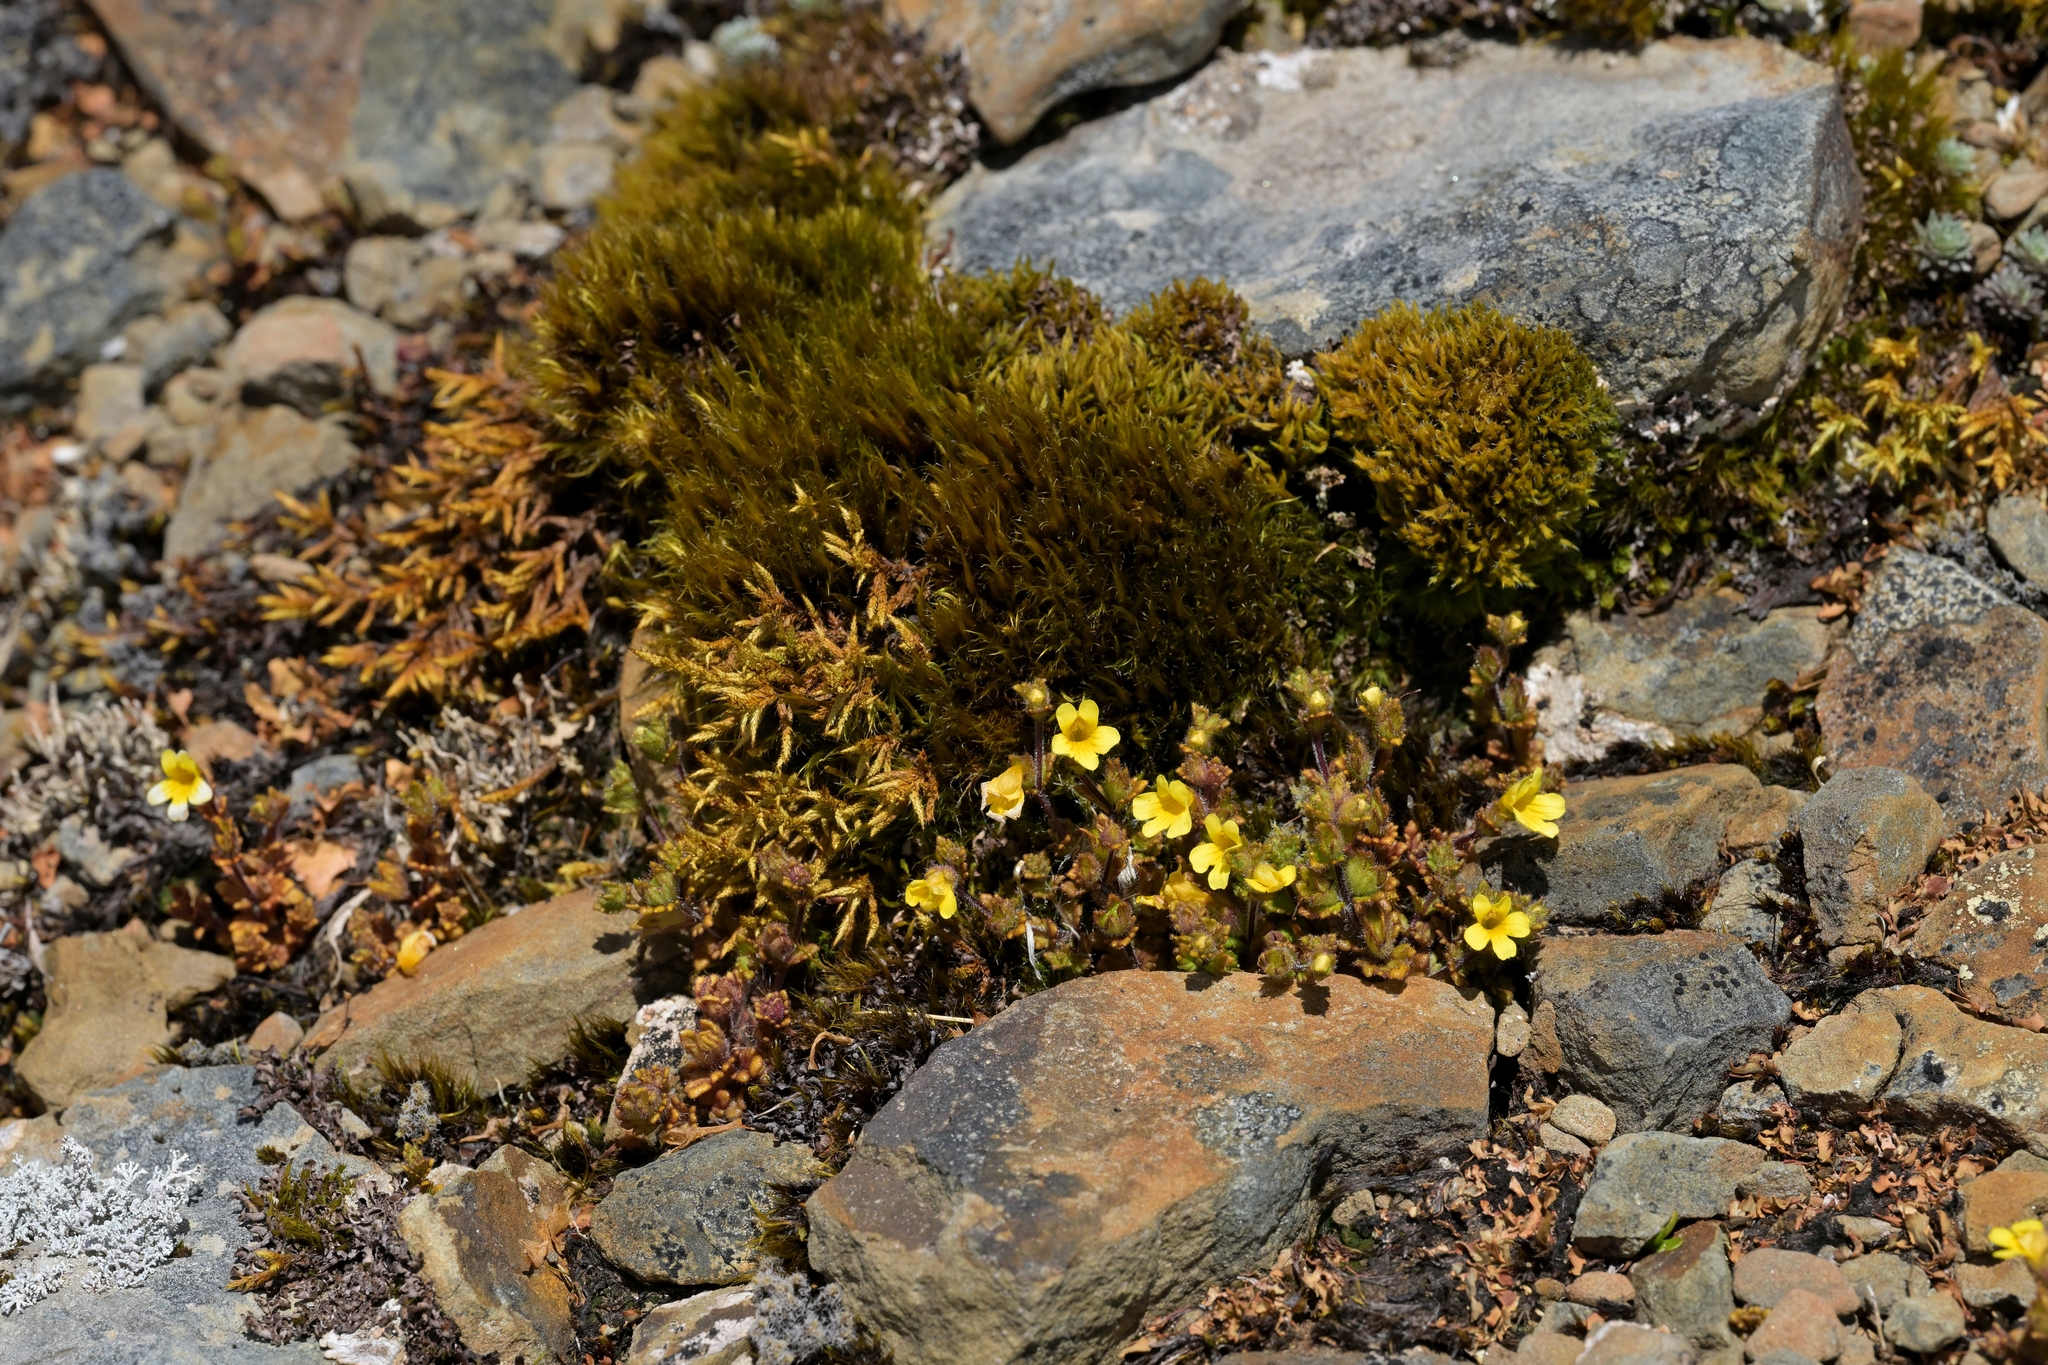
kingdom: Plantae
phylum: Tracheophyta
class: Magnoliopsida
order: Lamiales
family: Orobanchaceae
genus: Euphrasia
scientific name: Euphrasia cockayneana
